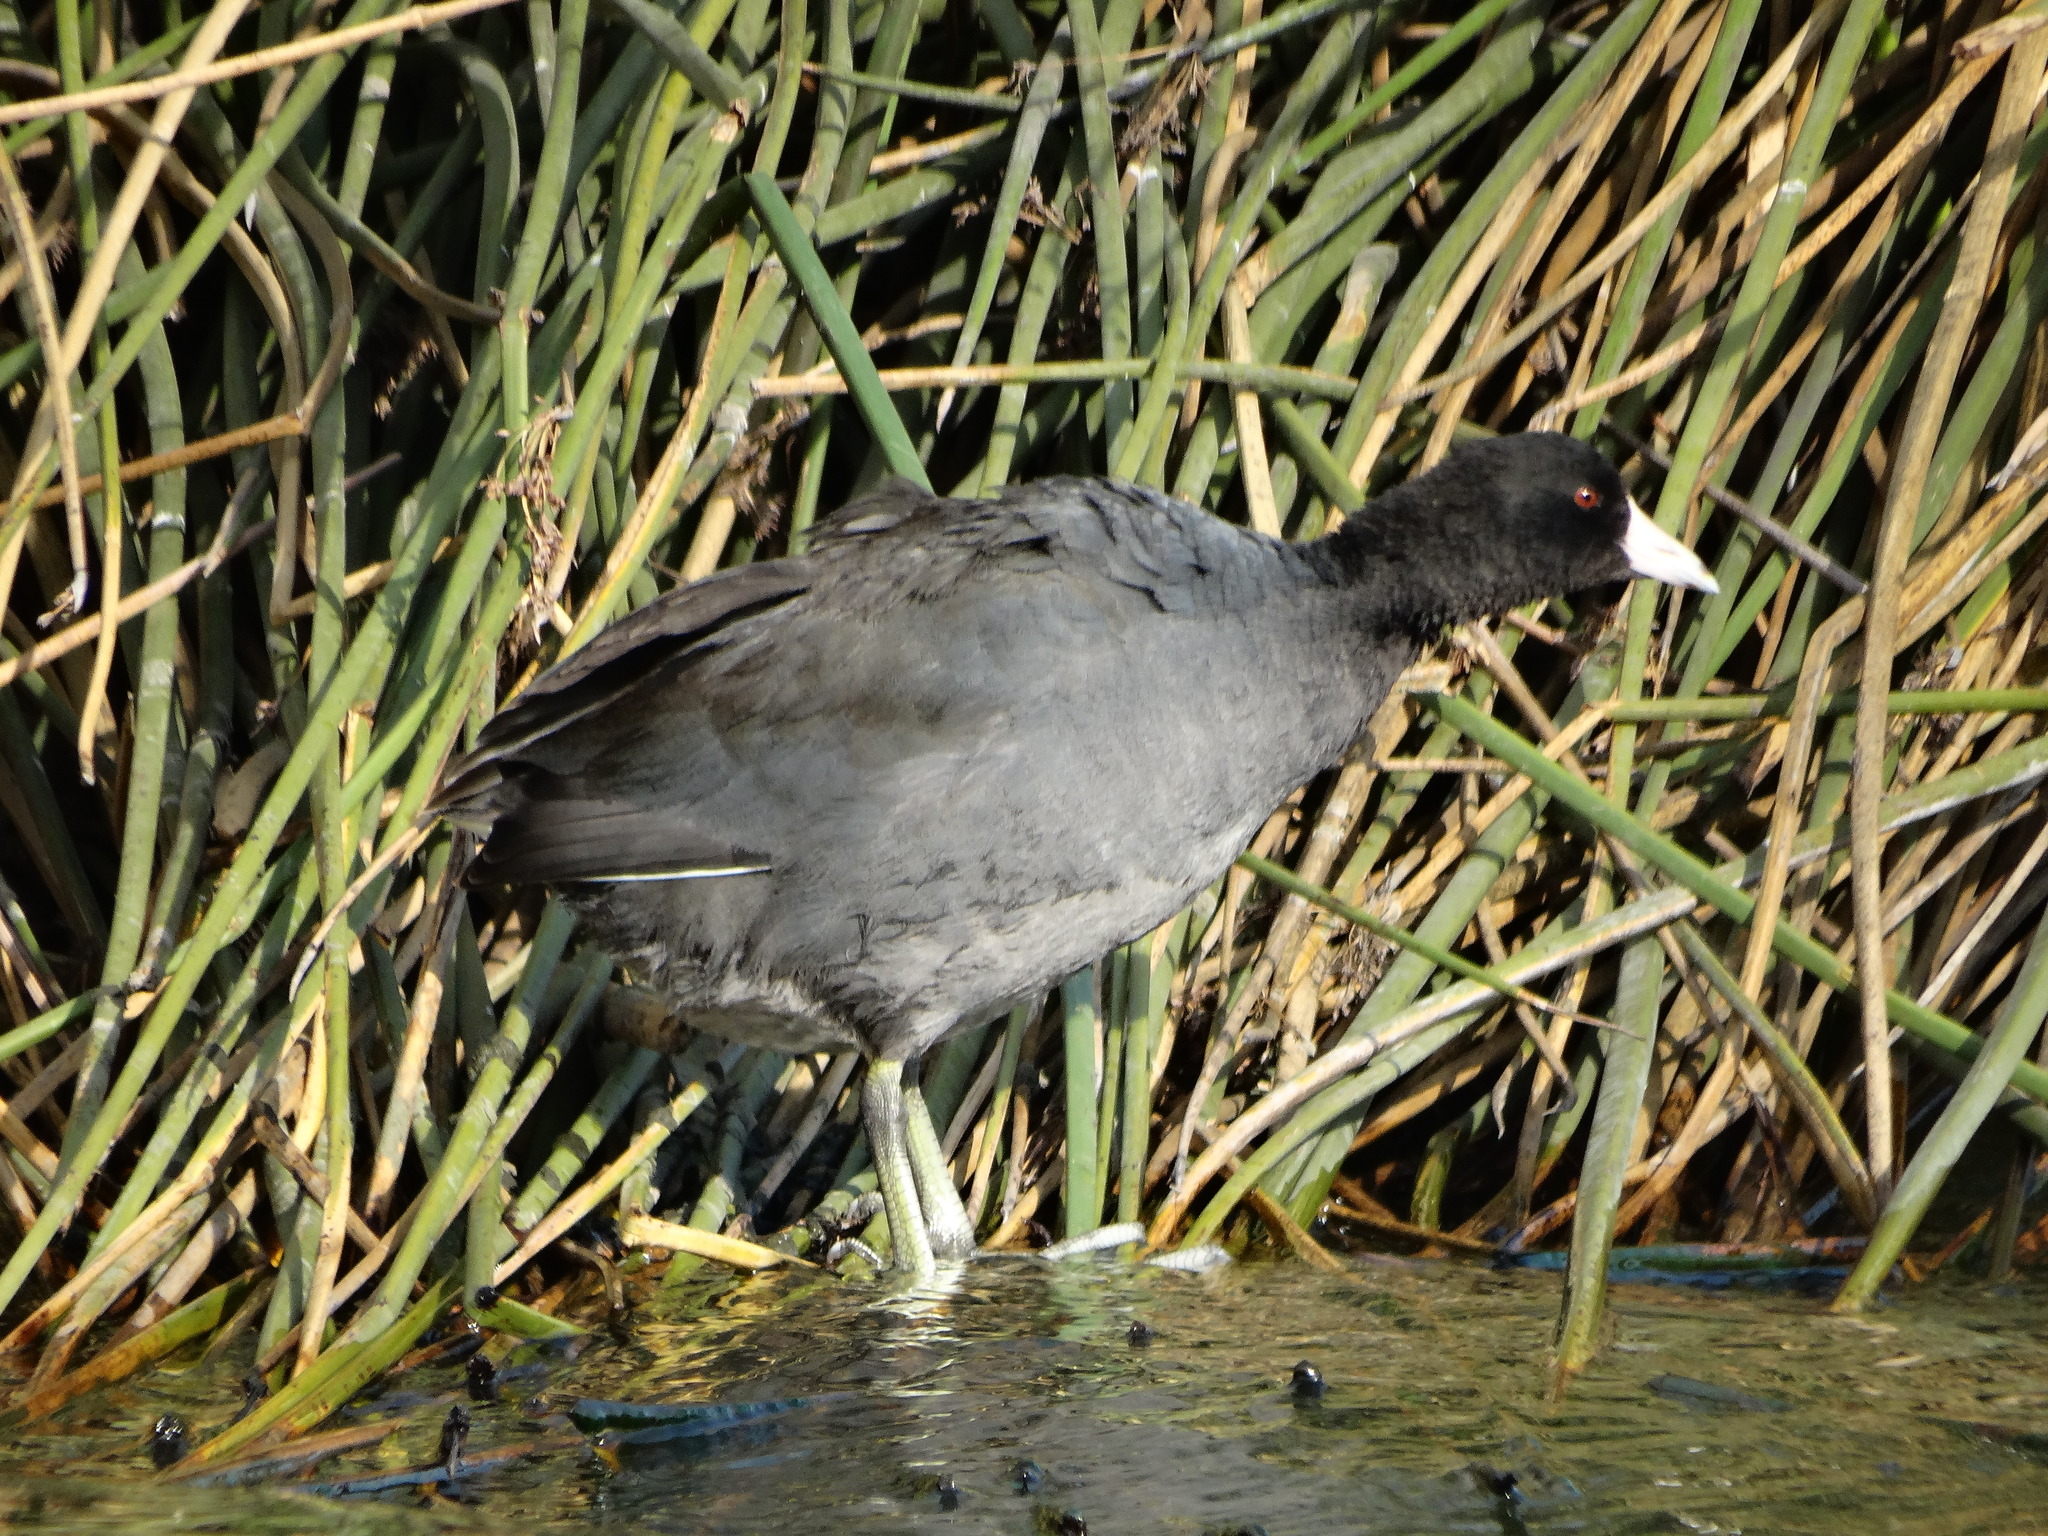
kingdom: Animalia
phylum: Chordata
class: Aves
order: Gruiformes
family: Rallidae
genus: Fulica
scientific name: Fulica americana
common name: American coot
